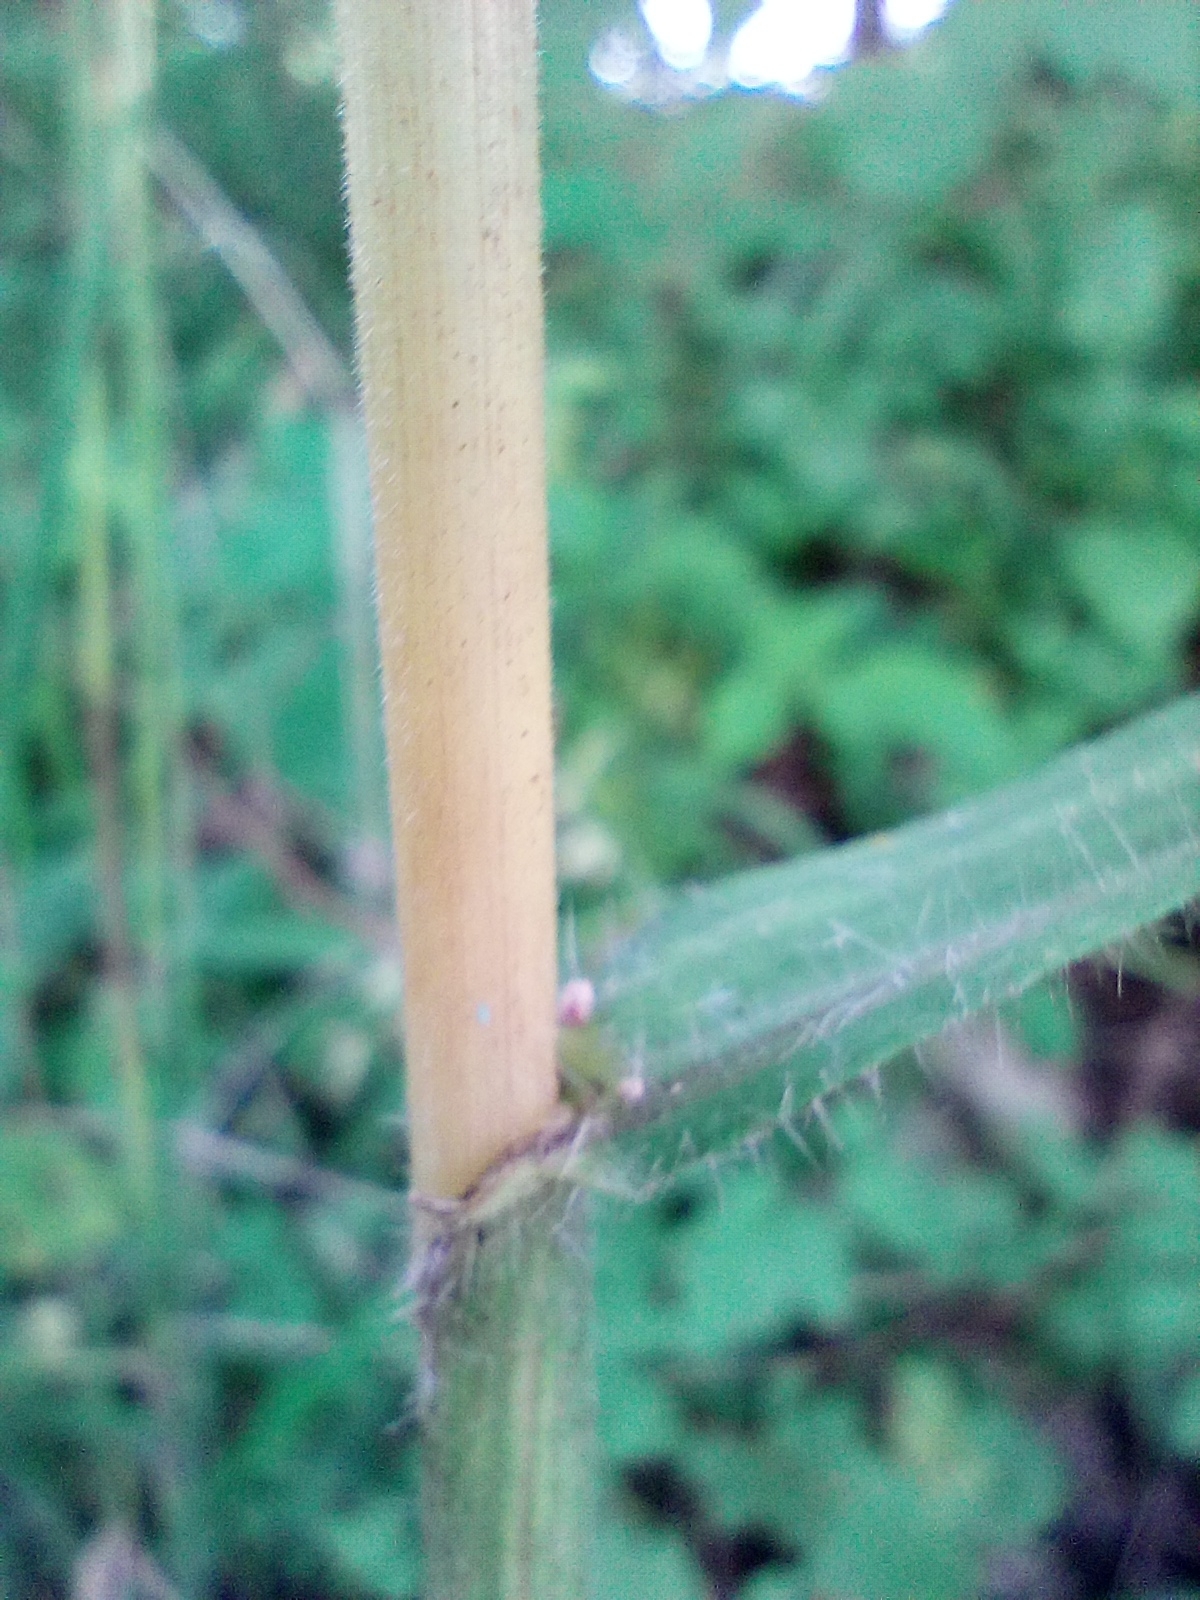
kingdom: Plantae
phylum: Tracheophyta
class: Liliopsida
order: Poales
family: Poaceae
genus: Bromus
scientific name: Bromus benekenii
